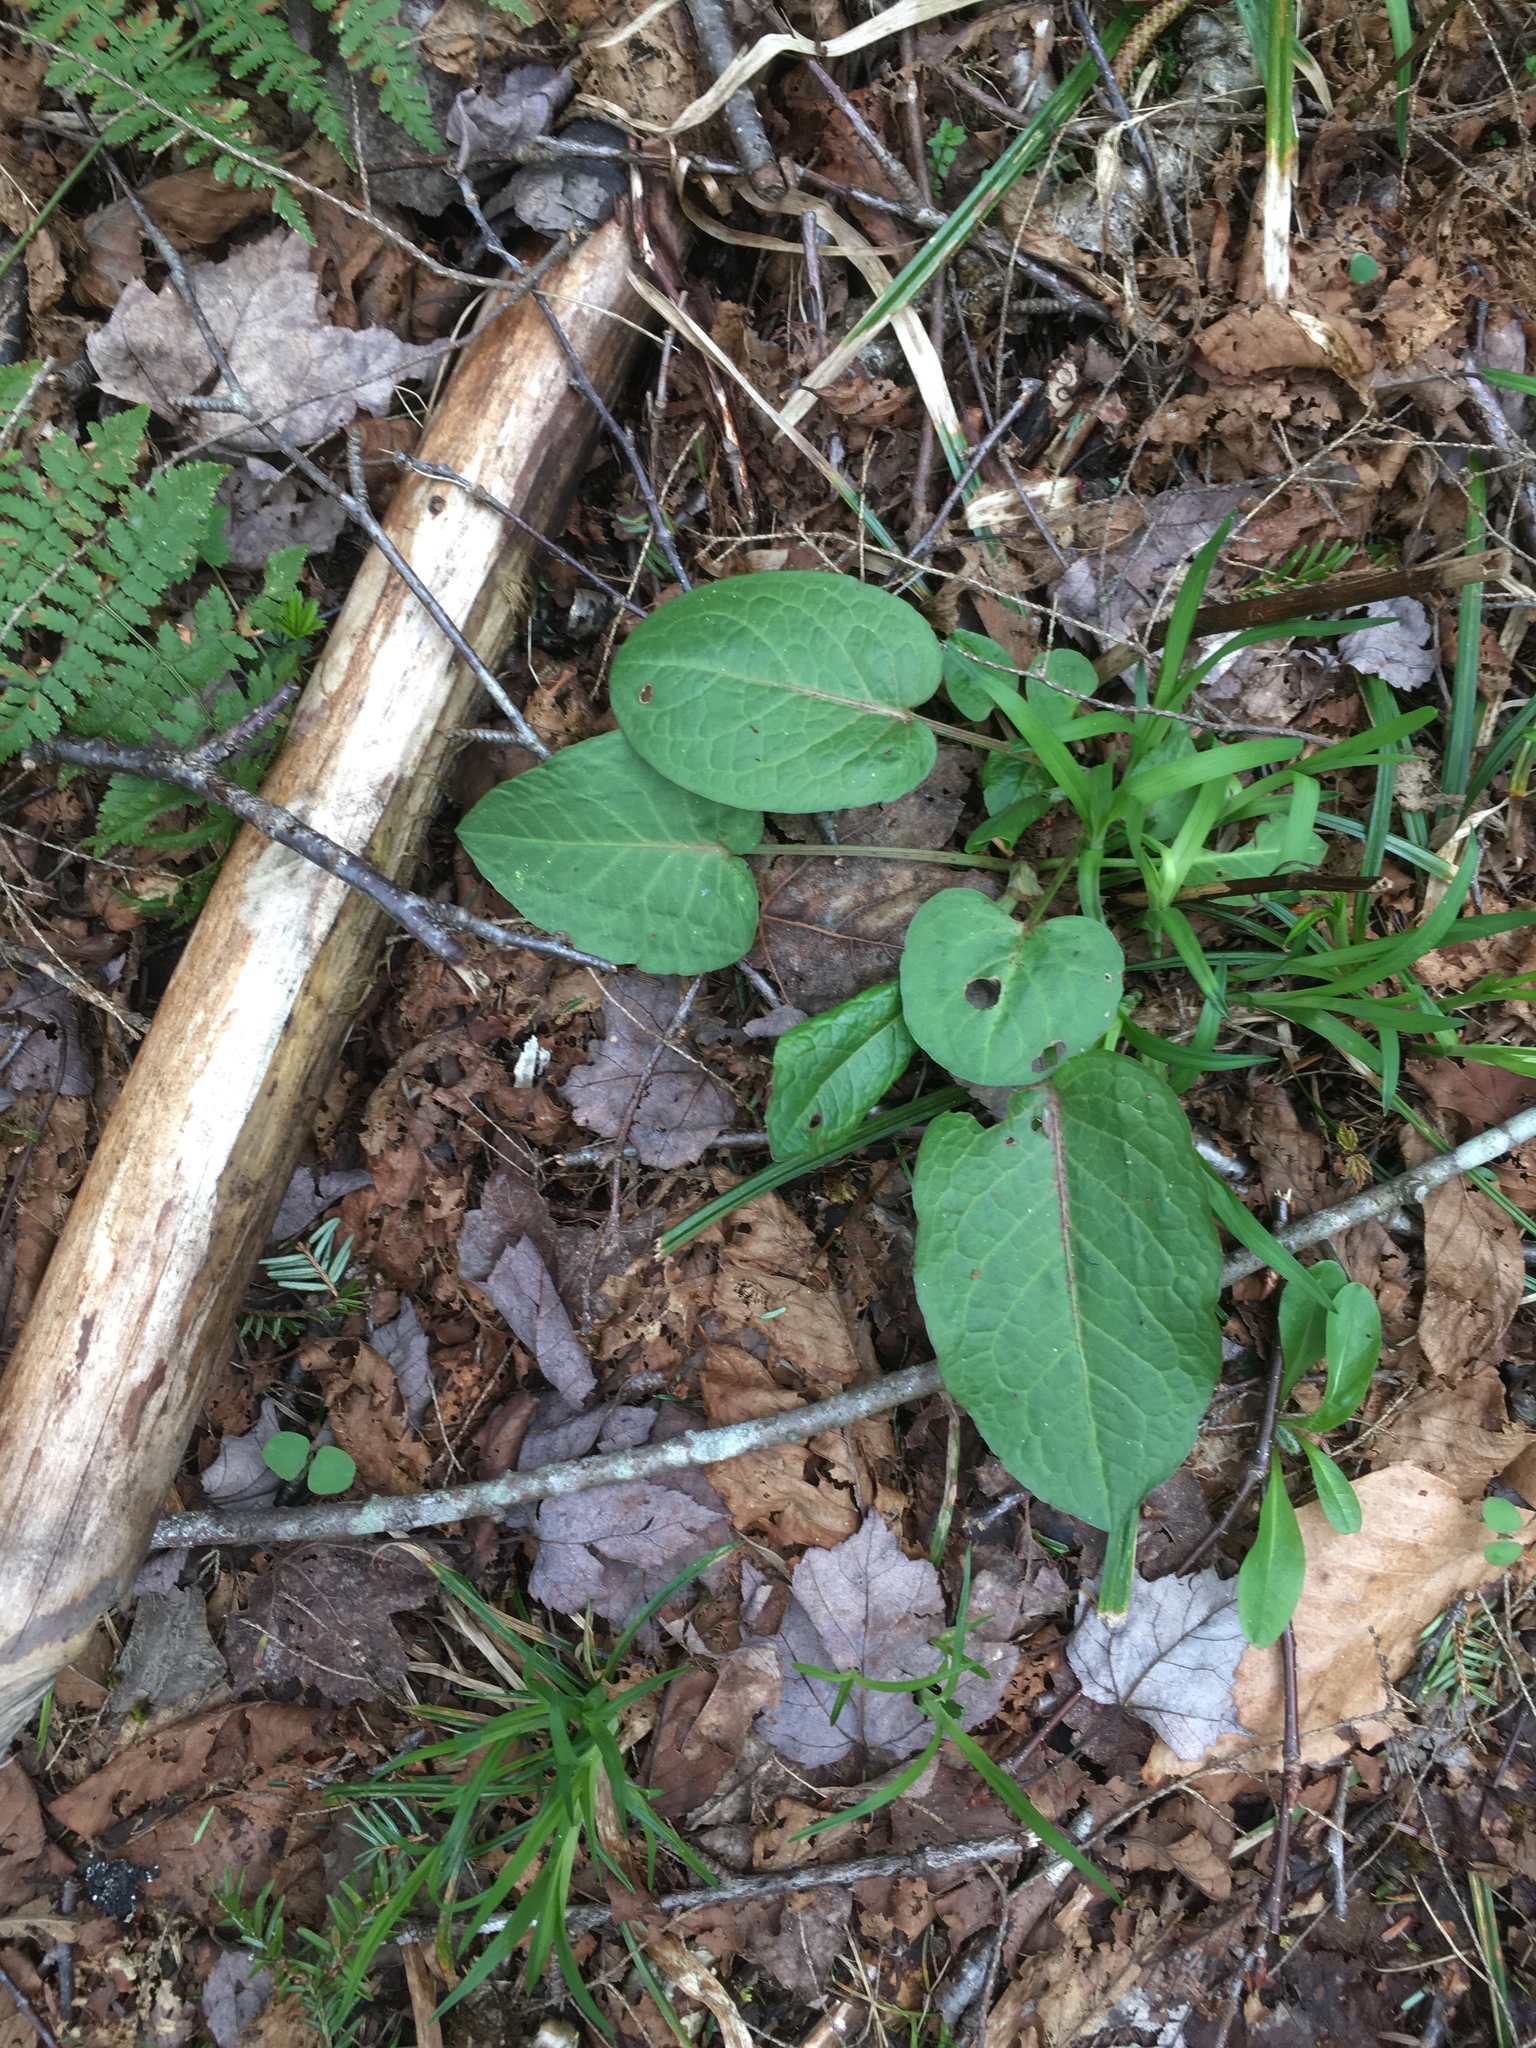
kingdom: Plantae
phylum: Tracheophyta
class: Magnoliopsida
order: Caryophyllales
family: Polygonaceae
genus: Rumex
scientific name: Rumex obtusifolius
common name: Bitter dock
